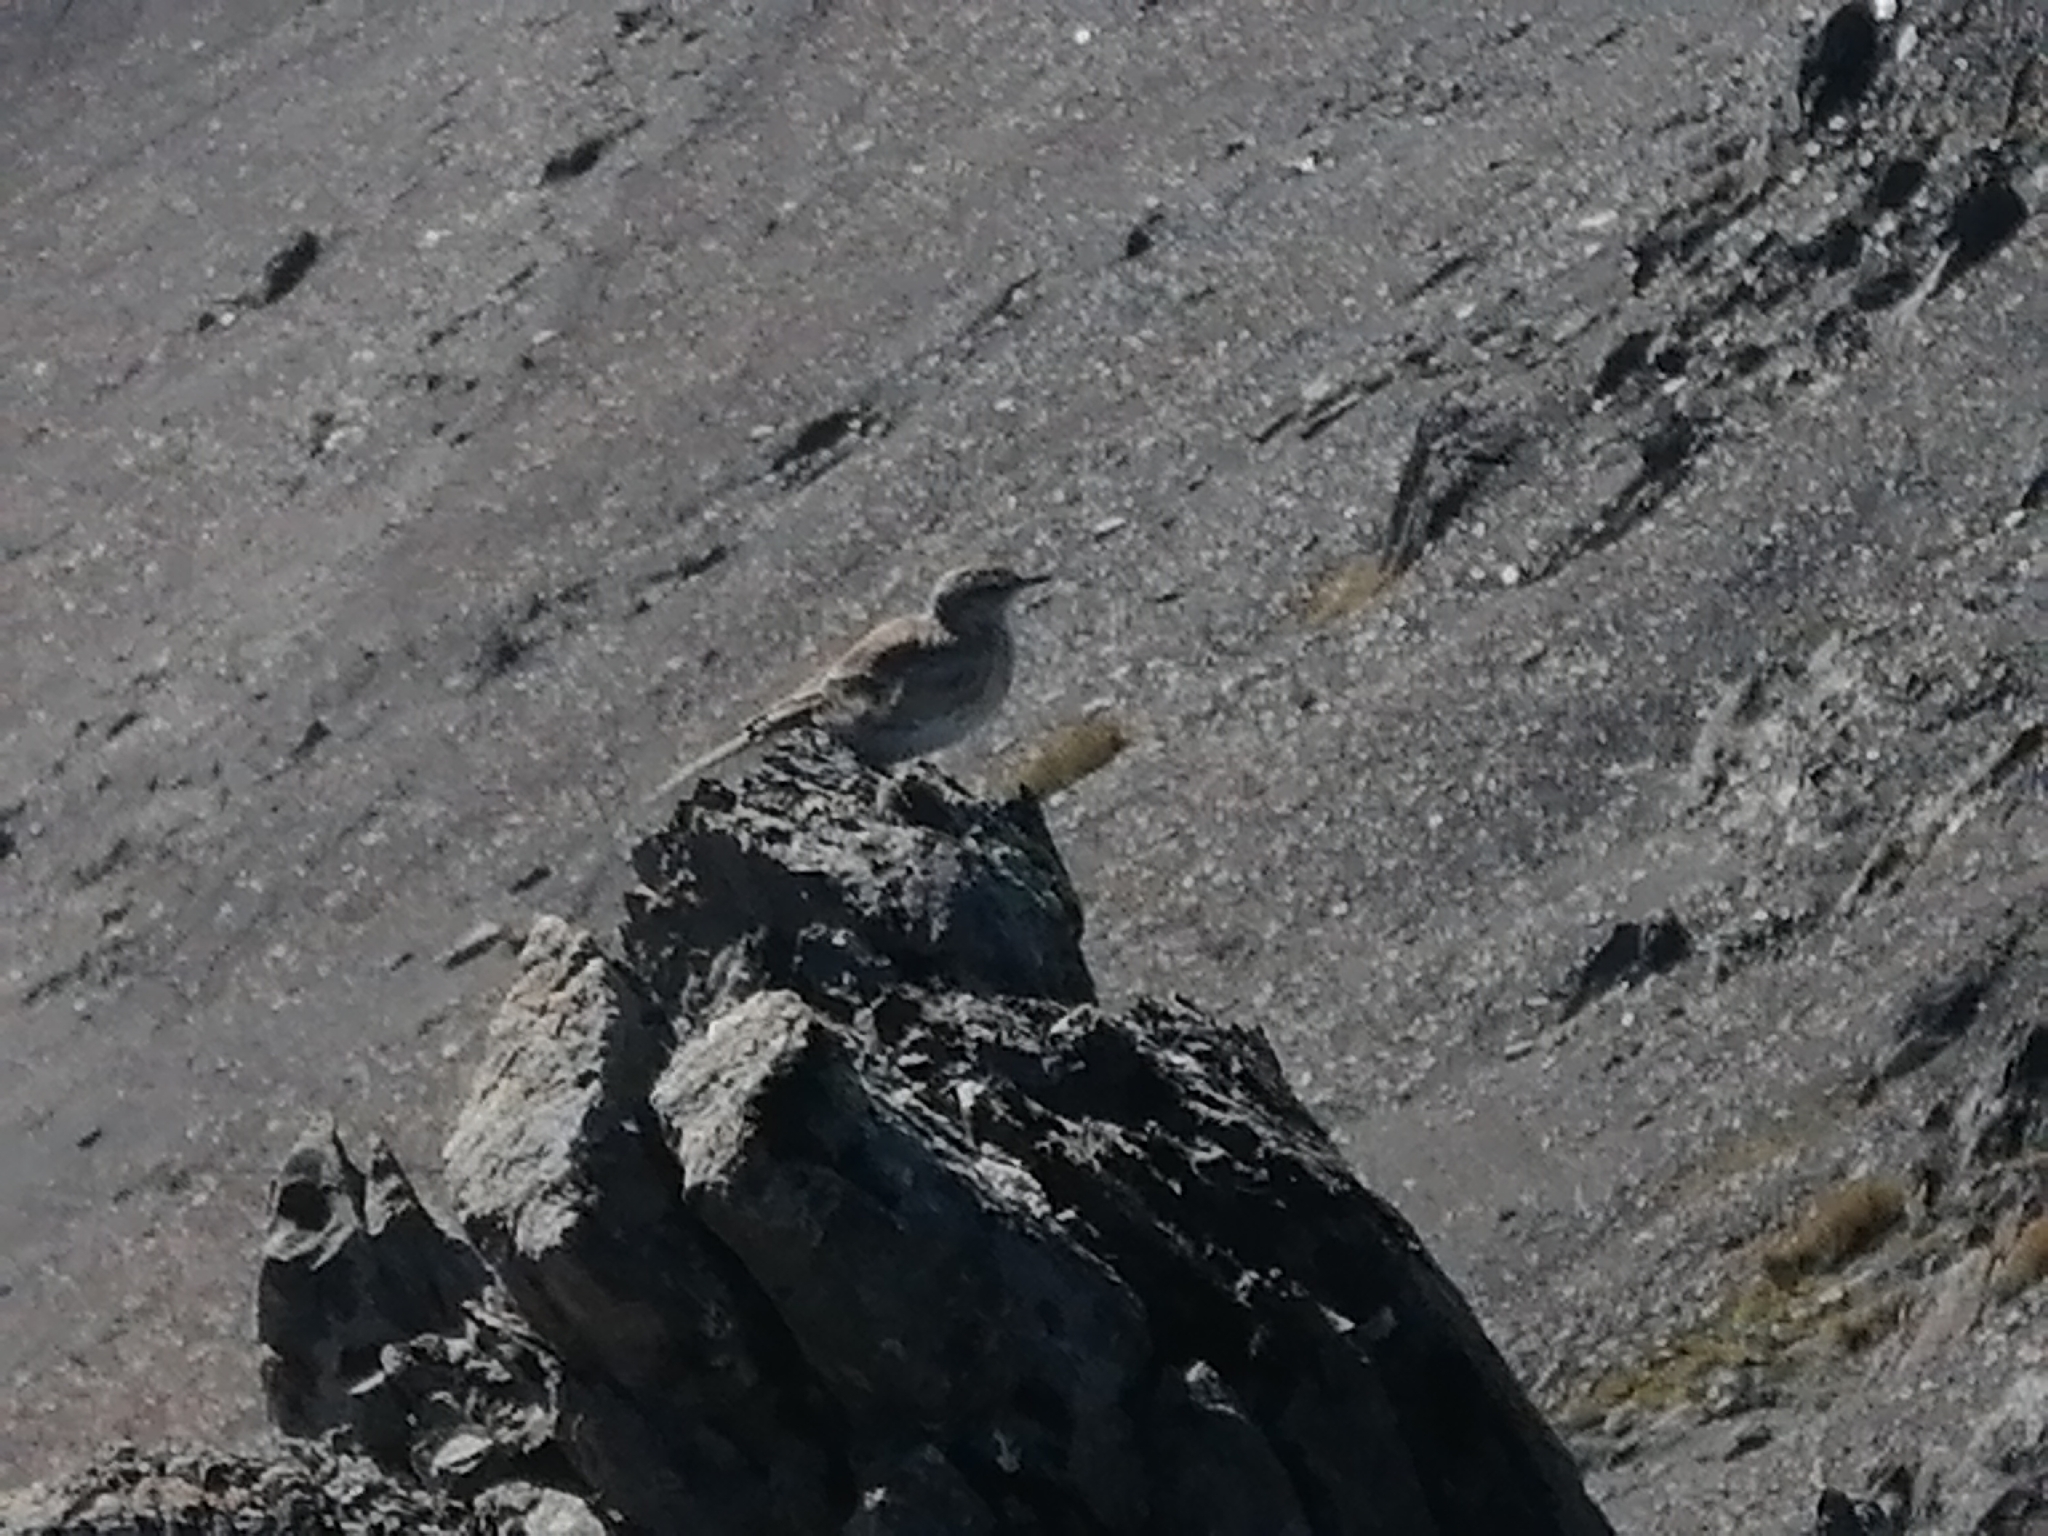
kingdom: Animalia
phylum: Chordata
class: Aves
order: Passeriformes
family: Motacillidae
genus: Anthus
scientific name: Anthus novaeseelandiae
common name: New zealand pipit
